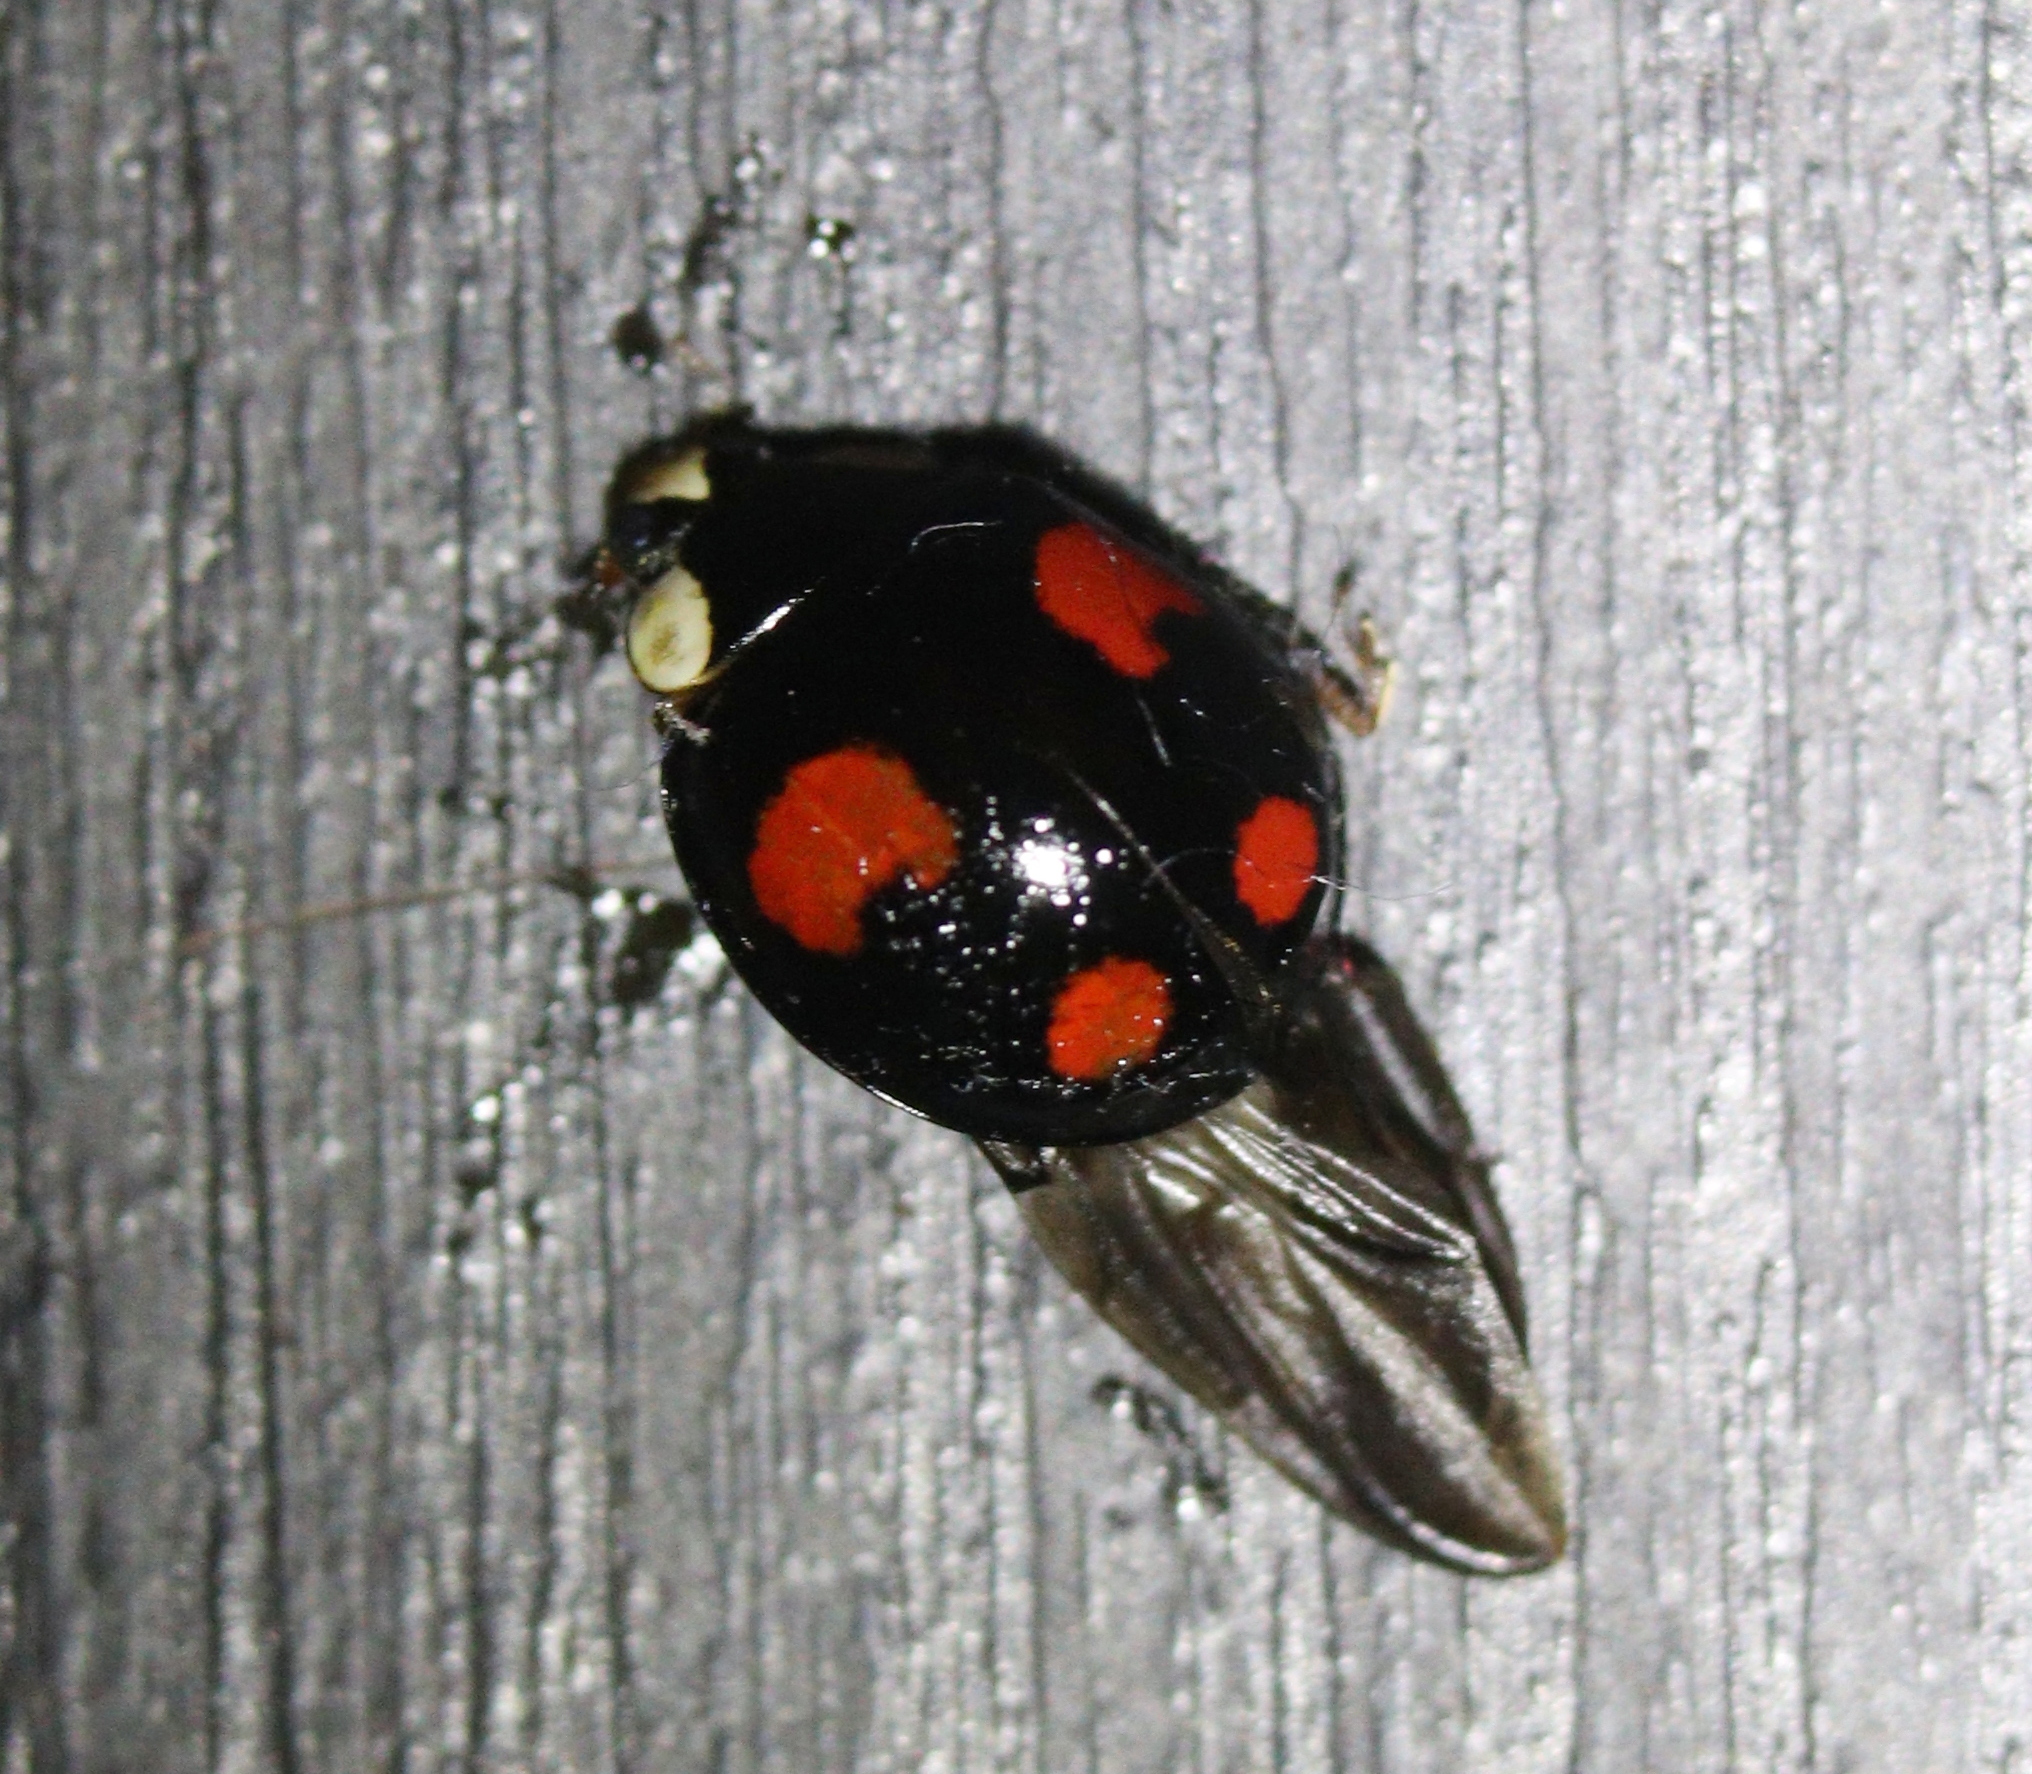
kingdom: Animalia
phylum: Arthropoda
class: Insecta
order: Coleoptera
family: Coccinellidae
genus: Harmonia
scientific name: Harmonia axyridis
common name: Harlequin ladybird
